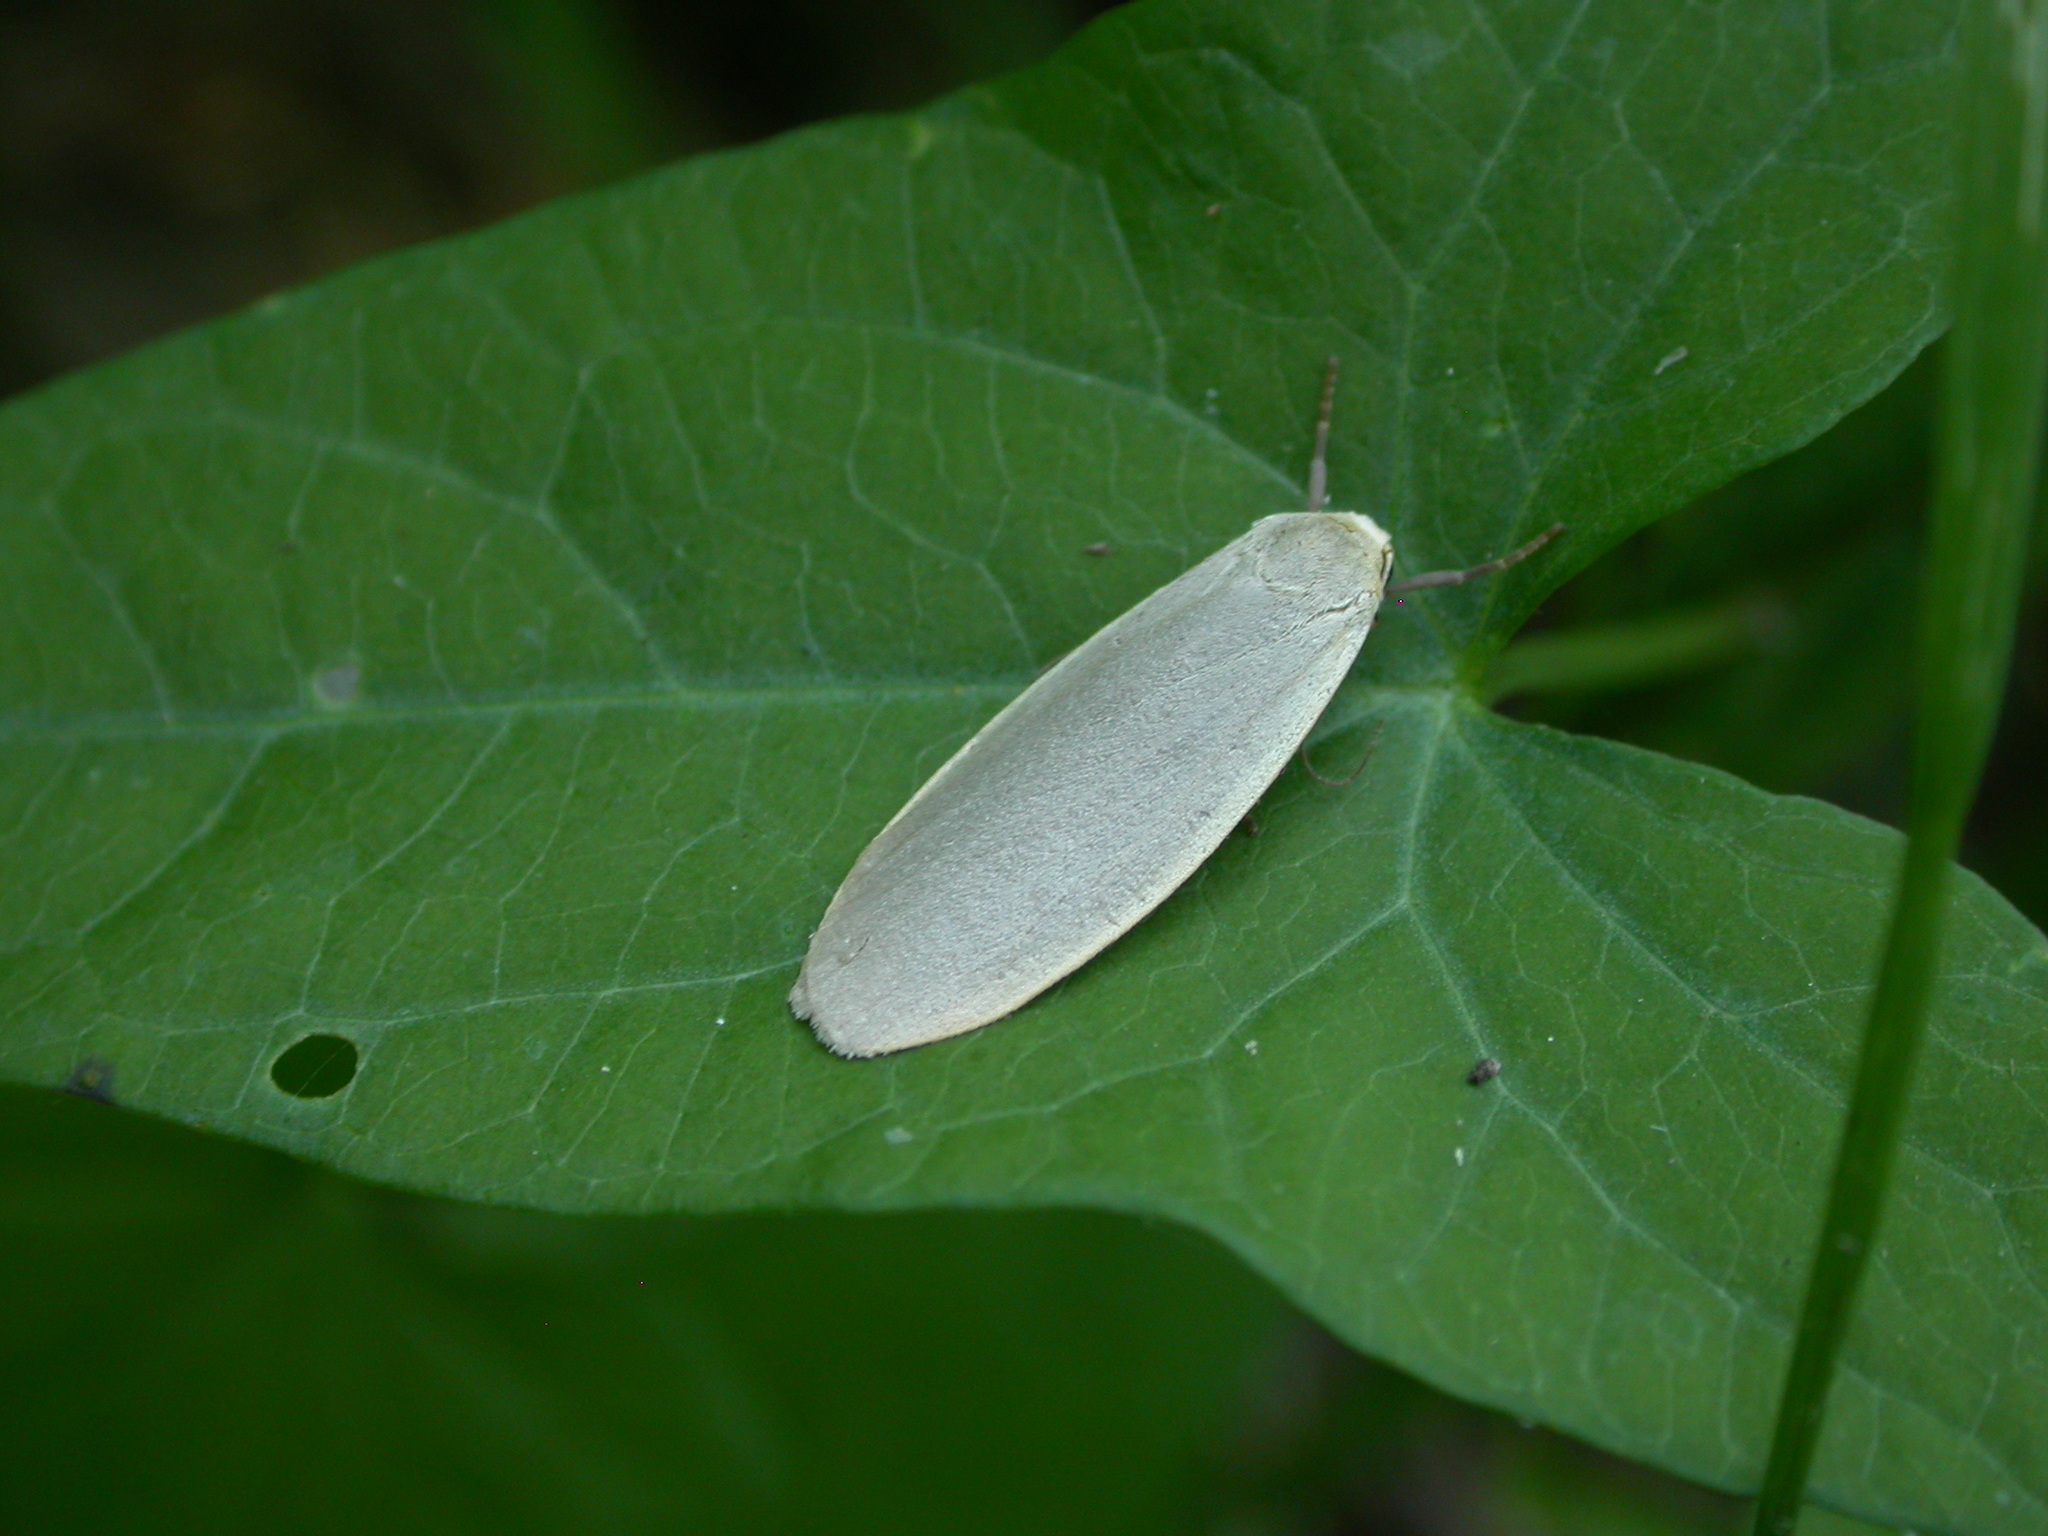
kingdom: Animalia
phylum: Arthropoda
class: Insecta
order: Lepidoptera
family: Erebidae
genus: Collita
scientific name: Collita griseola
